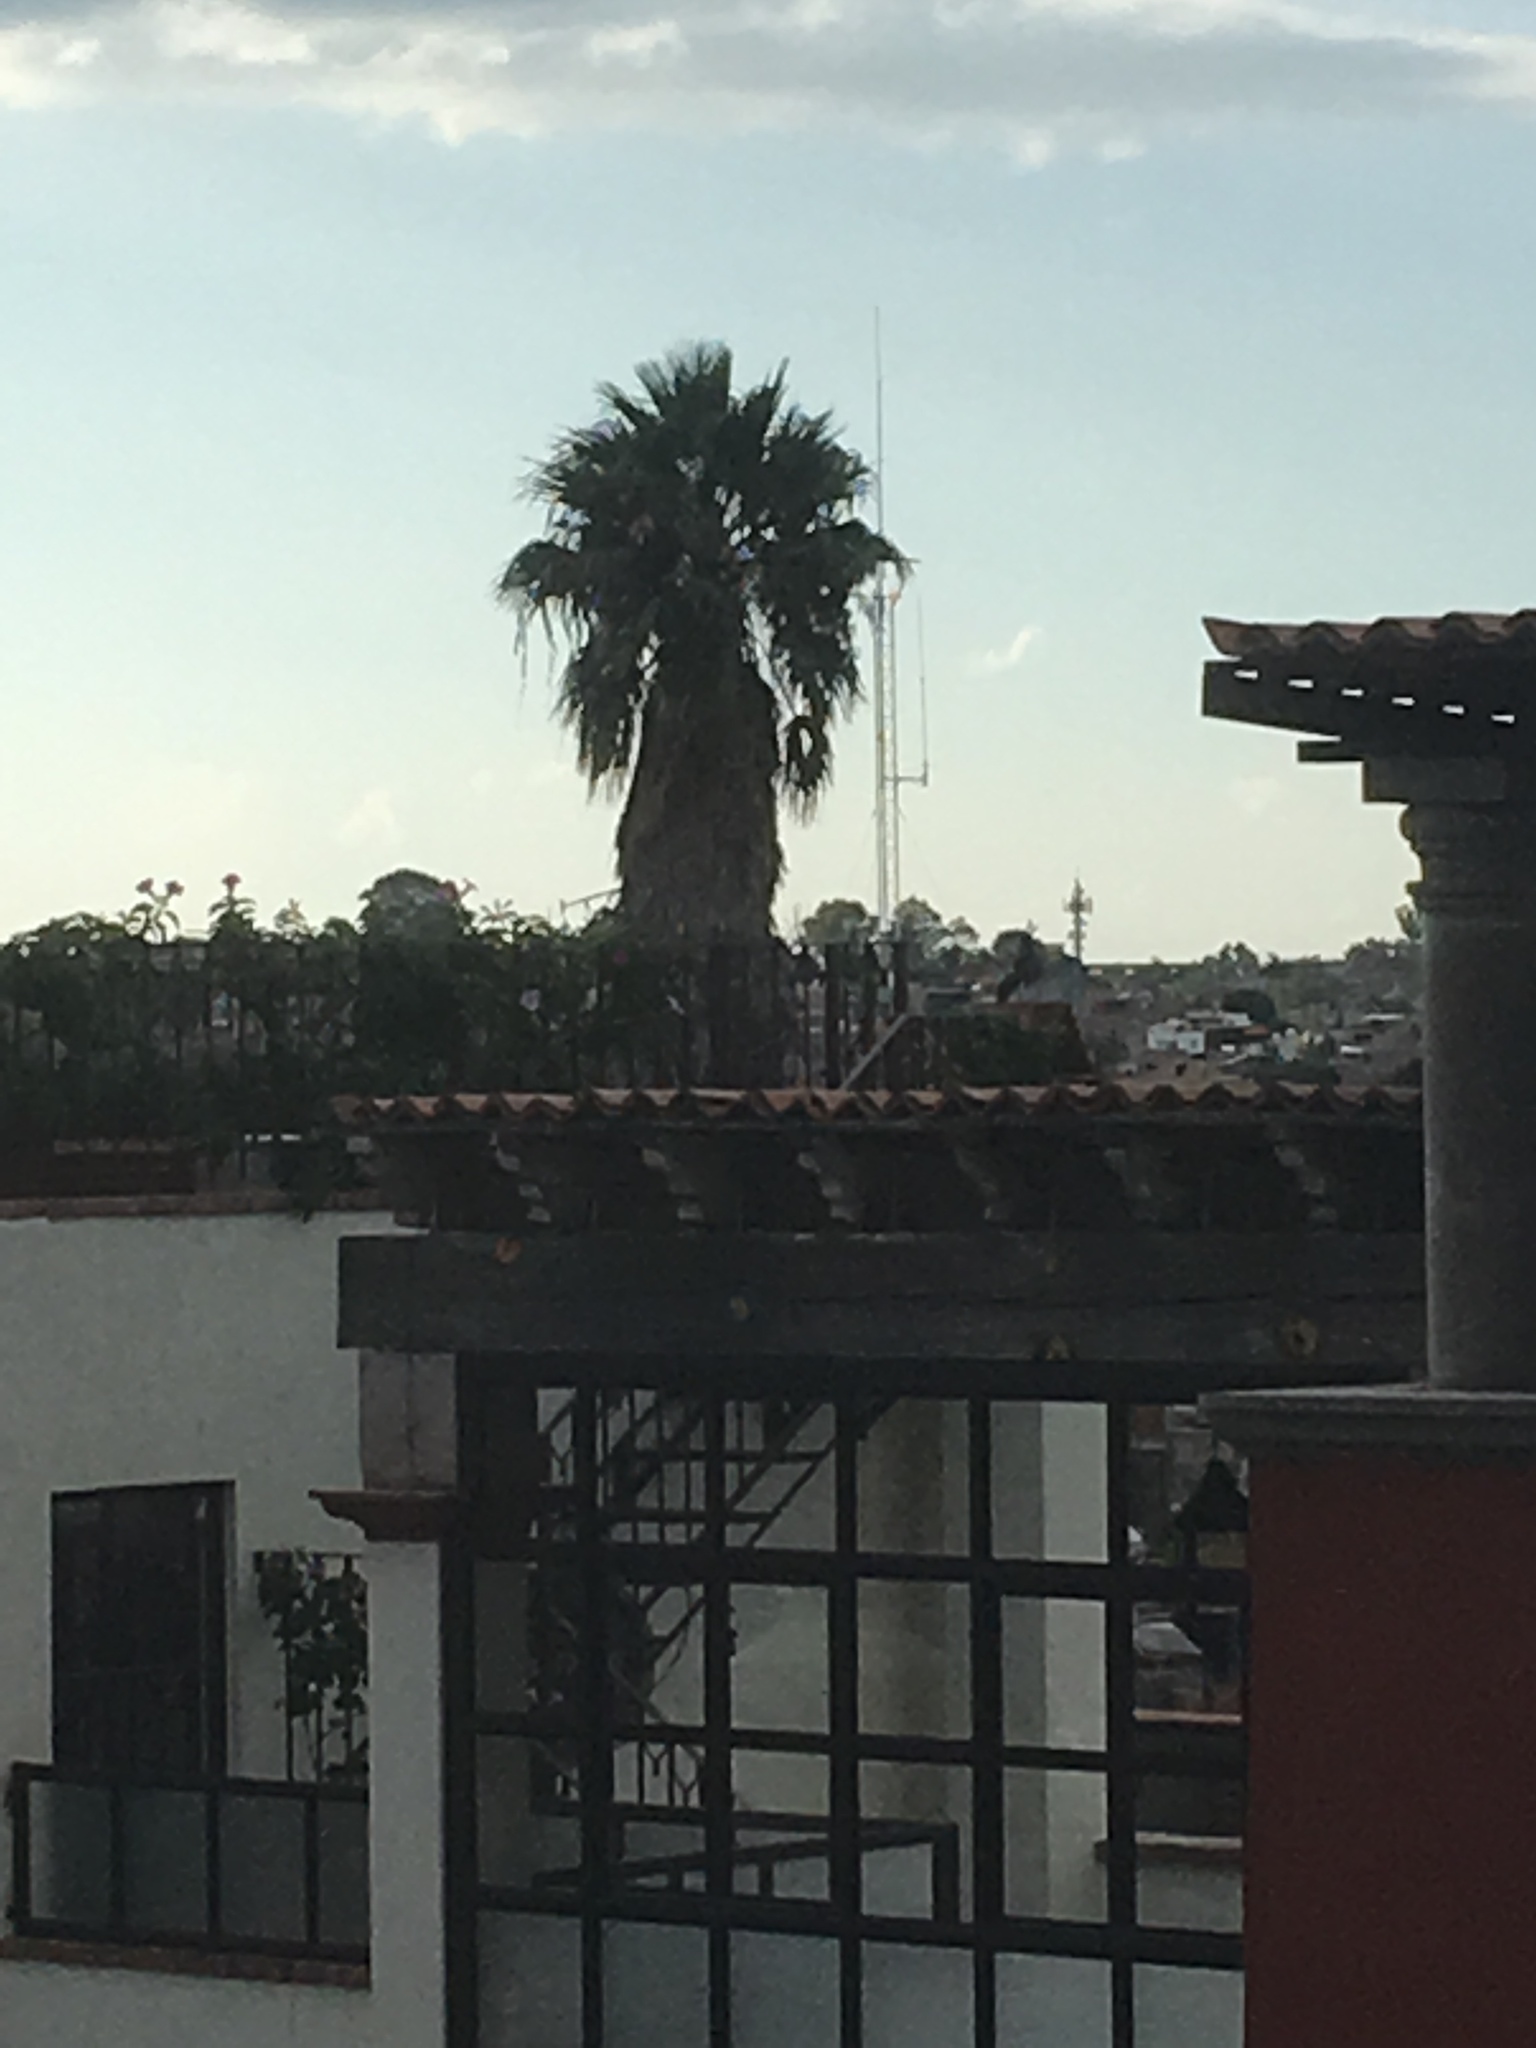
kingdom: Animalia
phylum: Chordata
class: Aves
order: Passeriformes
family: Icteridae
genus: Quiscalus
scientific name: Quiscalus mexicanus
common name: Great-tailed grackle
